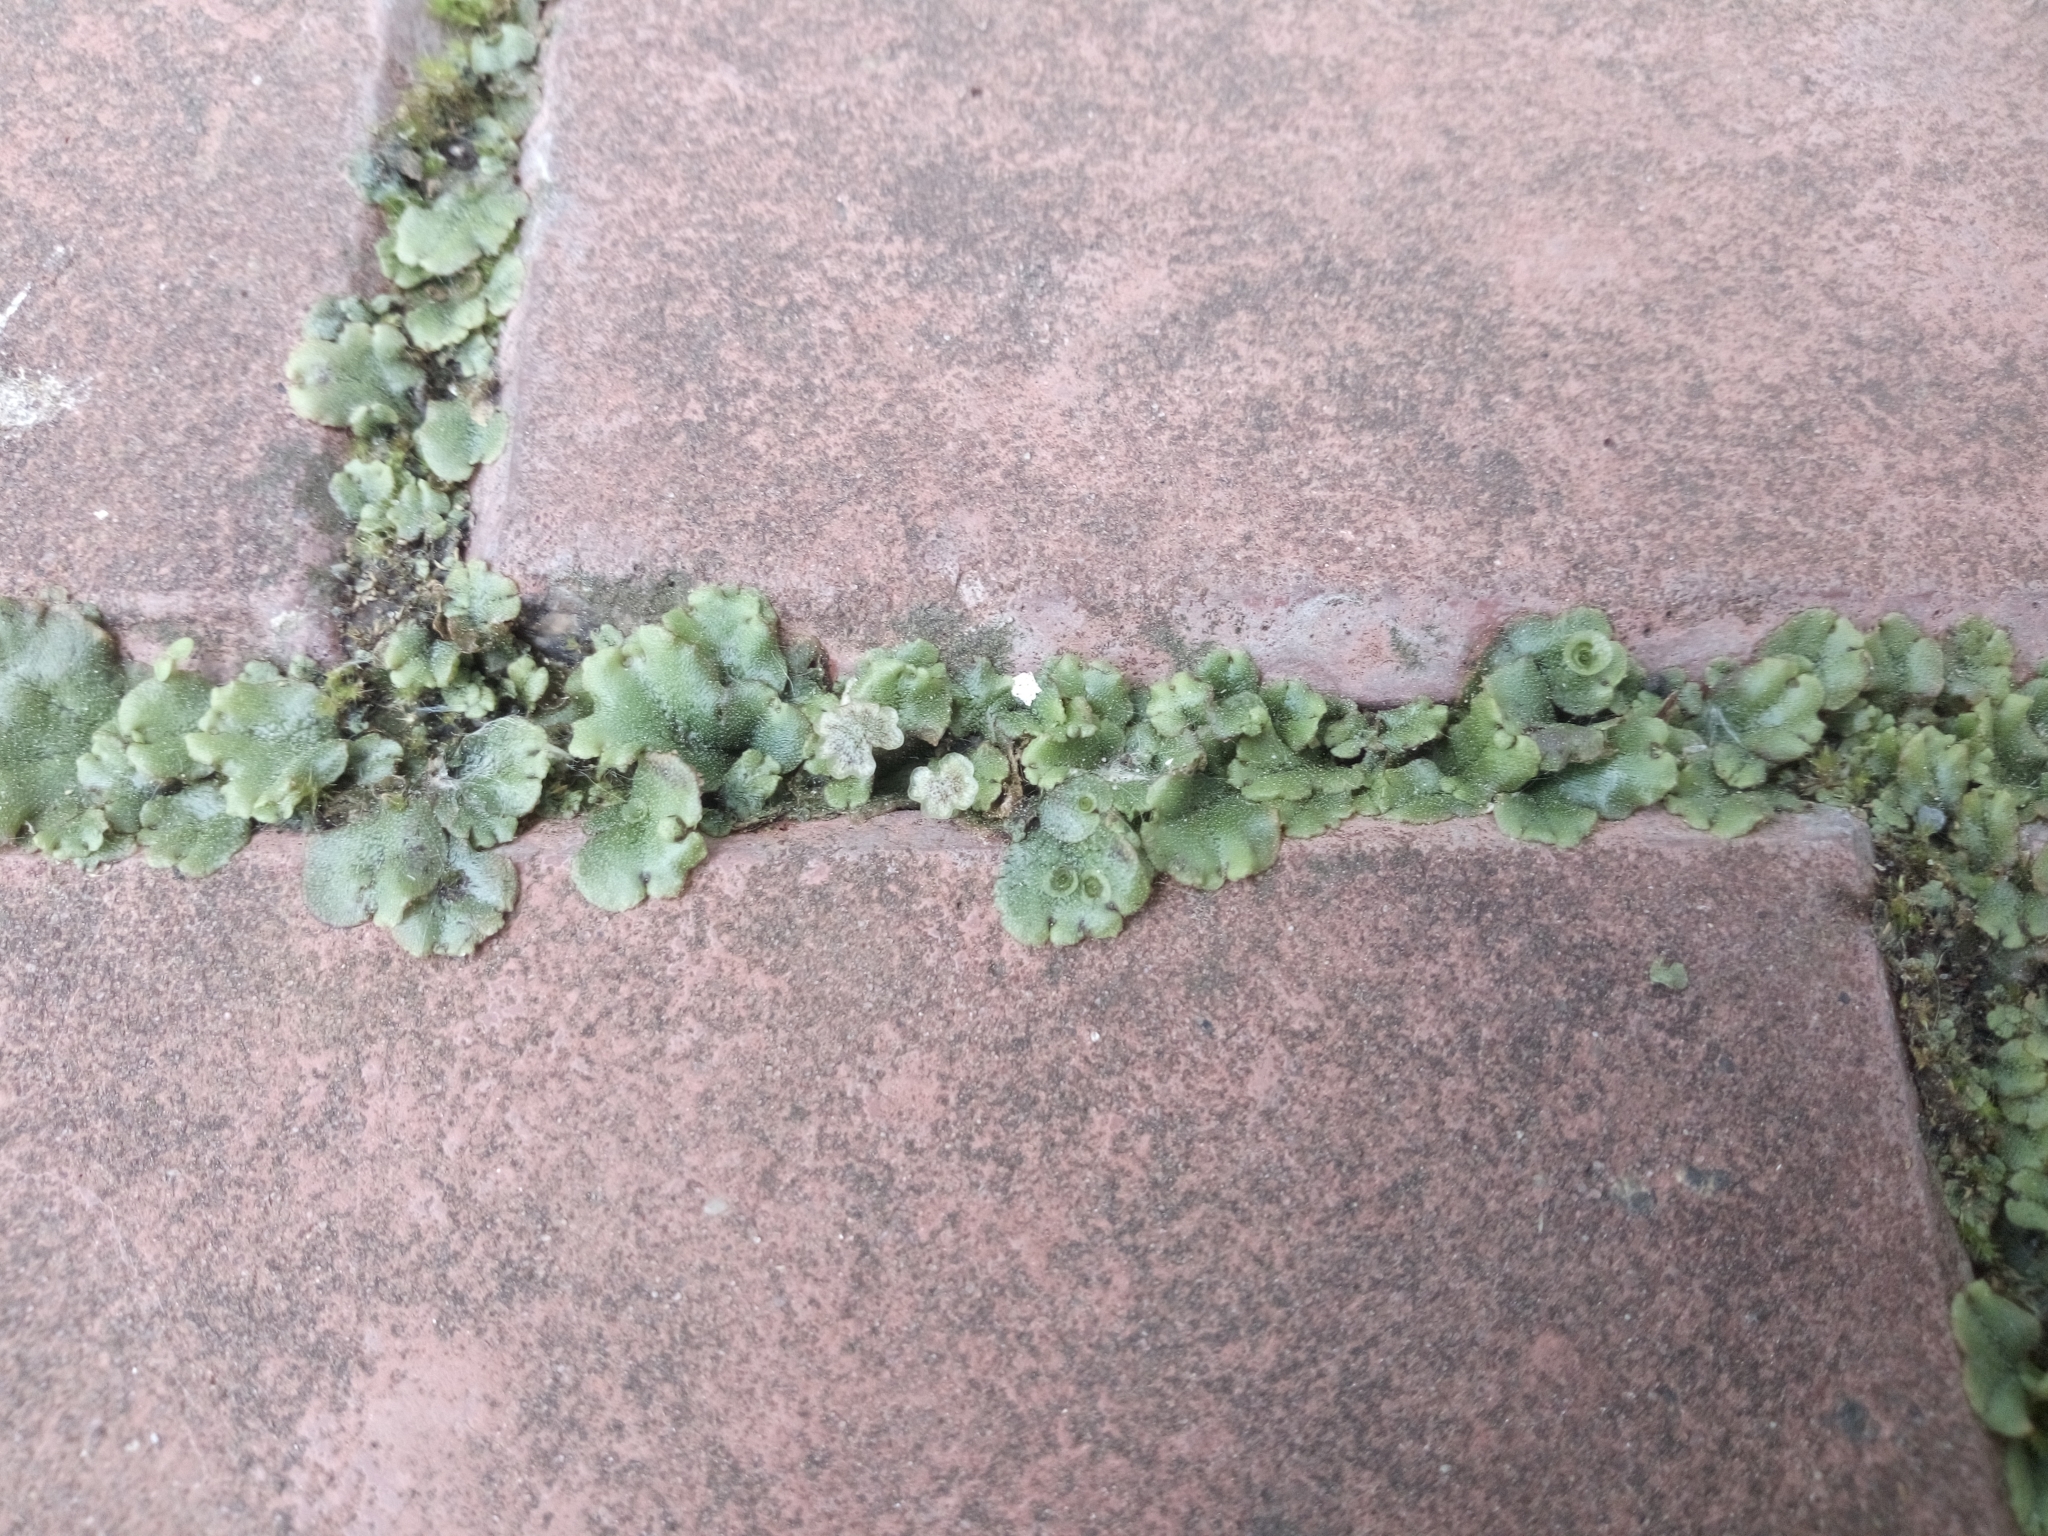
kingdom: Plantae
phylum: Marchantiophyta
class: Marchantiopsida
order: Marchantiales
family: Marchantiaceae
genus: Marchantia
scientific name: Marchantia polymorpha
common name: Common liverwort
